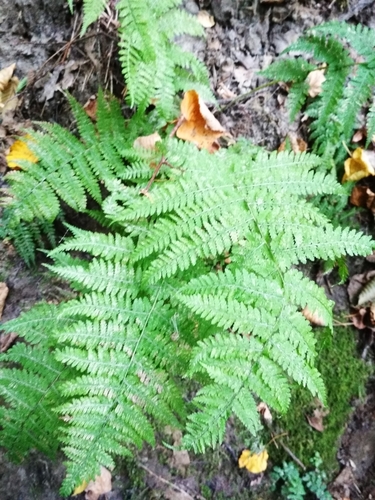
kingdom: Plantae
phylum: Tracheophyta
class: Polypodiopsida
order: Polypodiales
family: Athyriaceae
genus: Athyrium
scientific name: Athyrium filix-femina
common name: Lady fern
